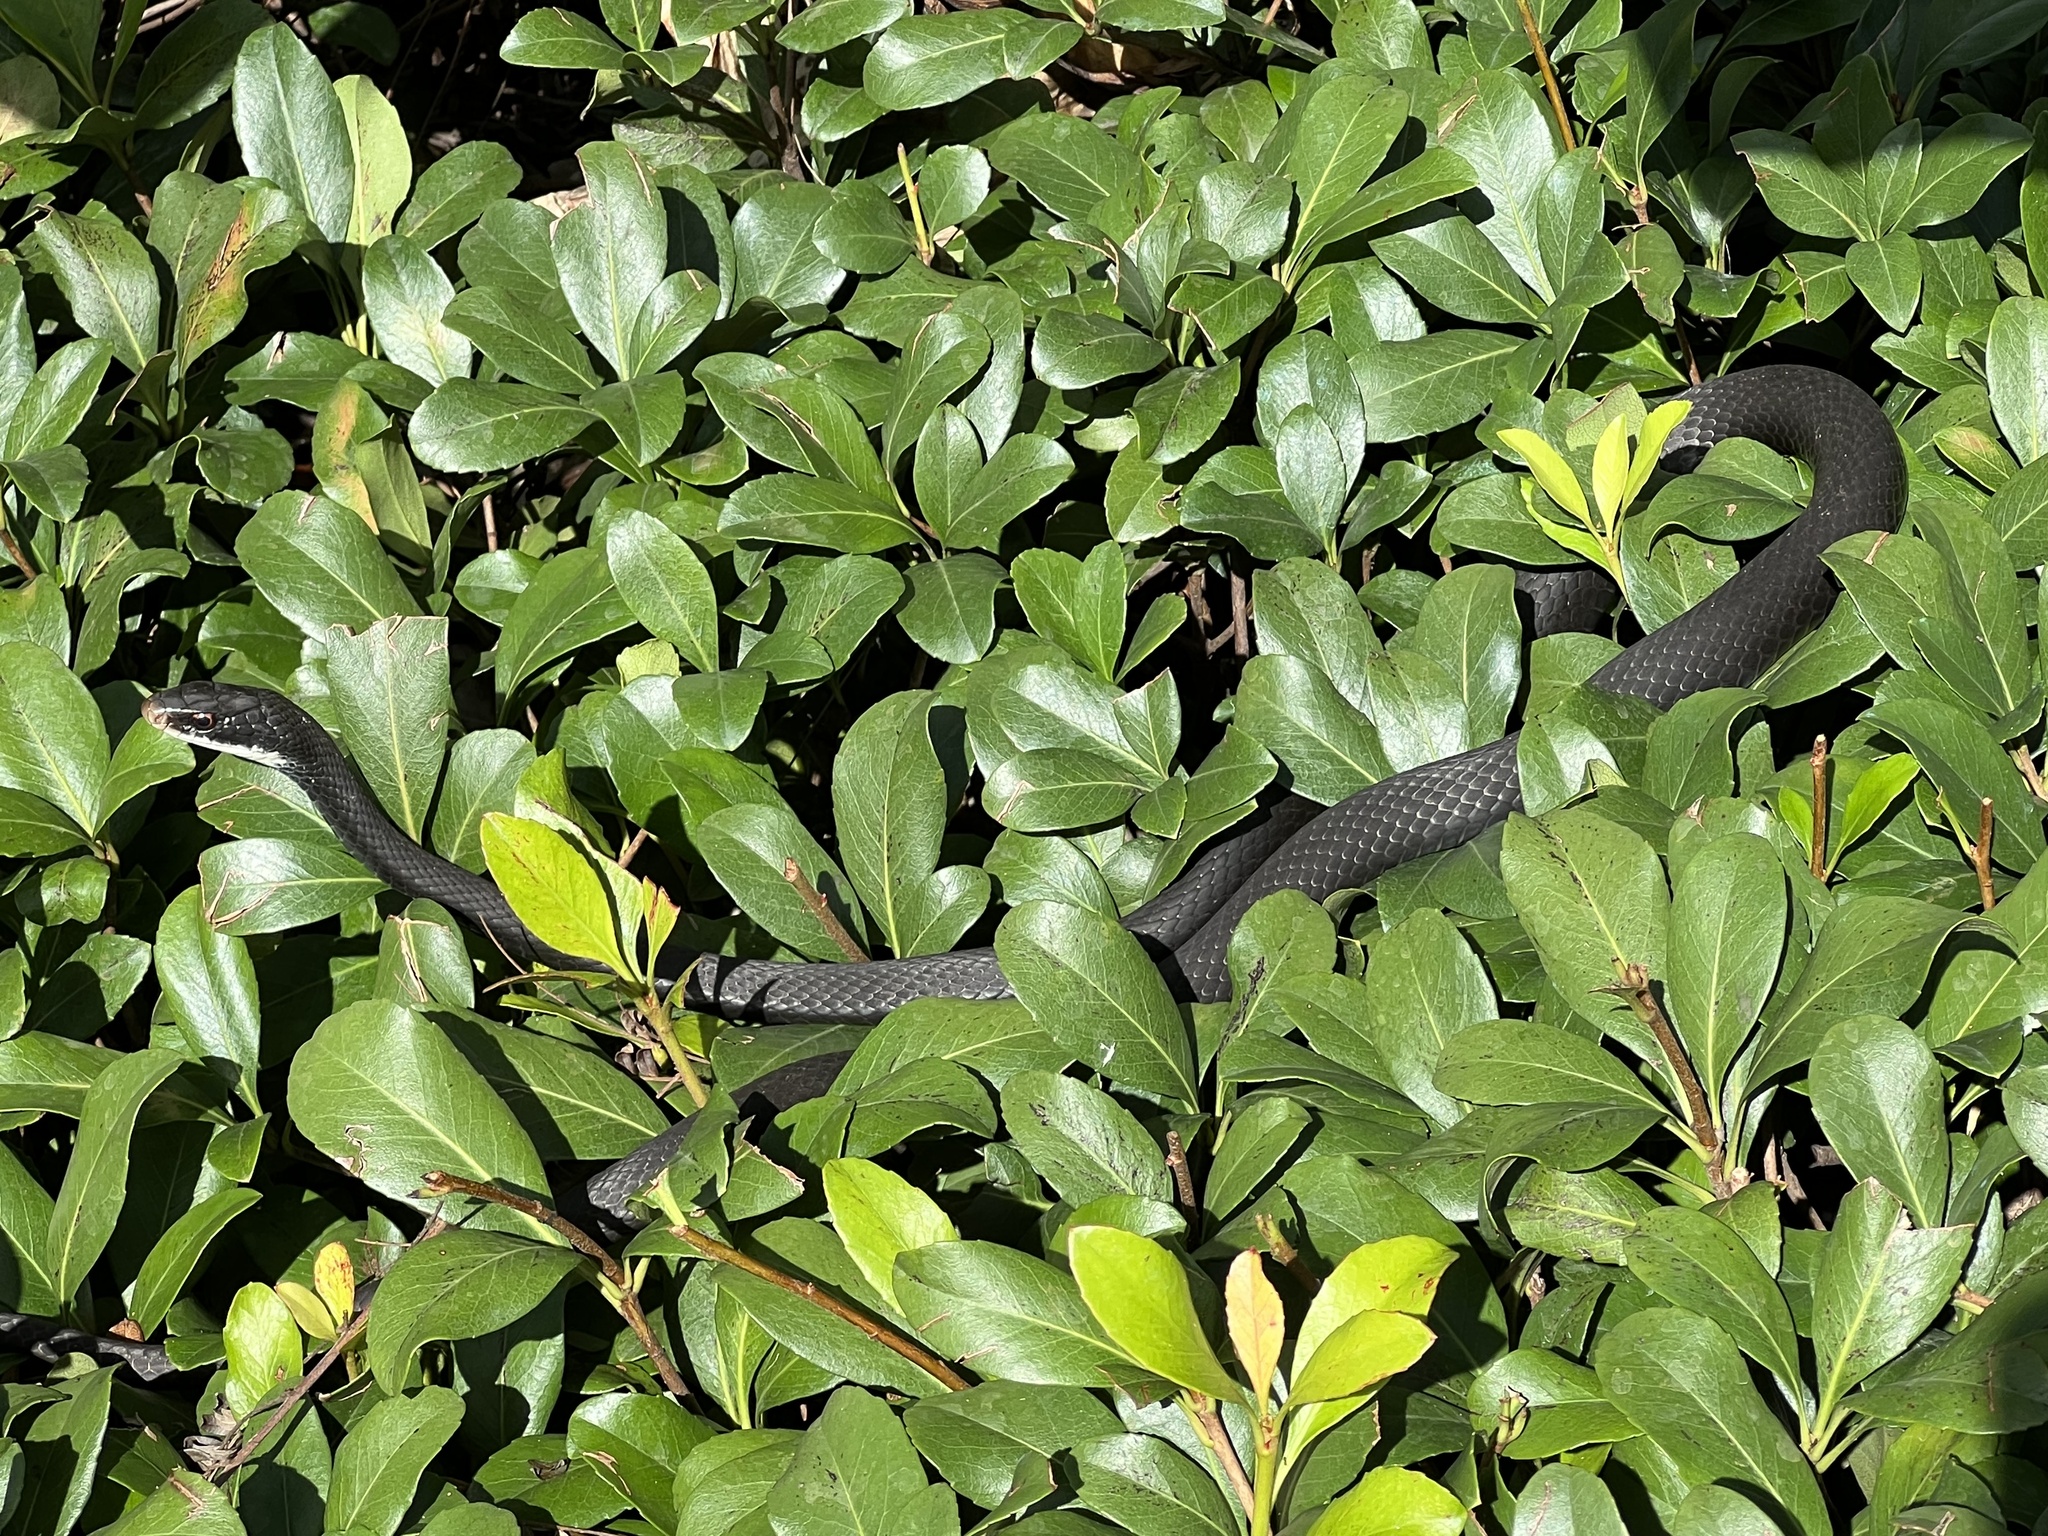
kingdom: Animalia
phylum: Chordata
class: Squamata
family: Colubridae
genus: Coluber
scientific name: Coluber constrictor
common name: Eastern racer
